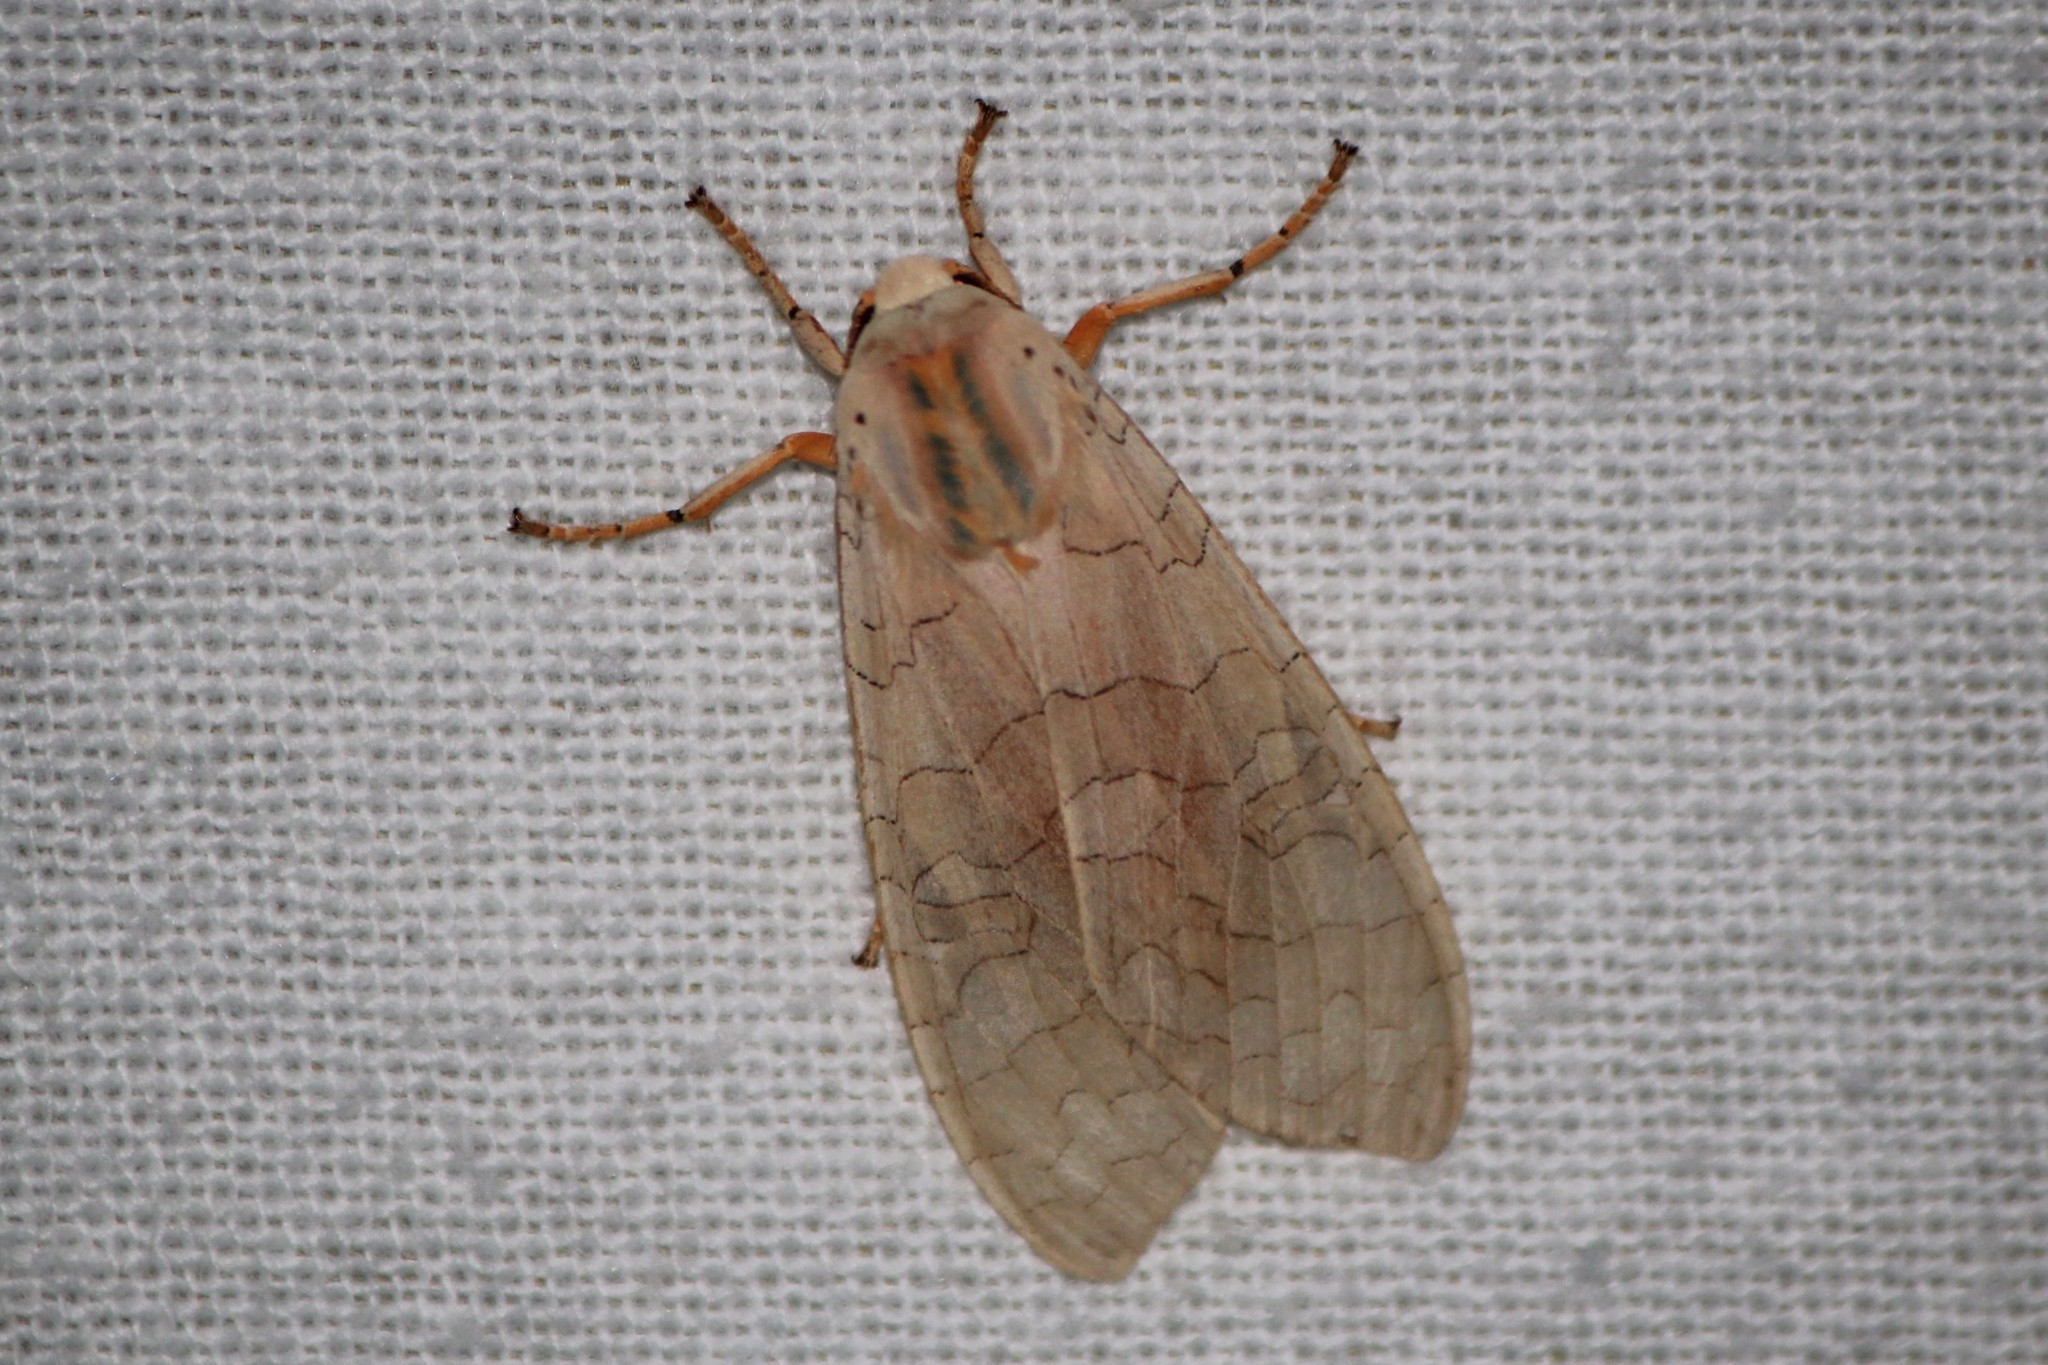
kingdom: Animalia
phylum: Arthropoda
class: Insecta
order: Lepidoptera
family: Erebidae
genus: Halysidota
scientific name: Halysidota tessellaris
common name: Banded tussock moth
